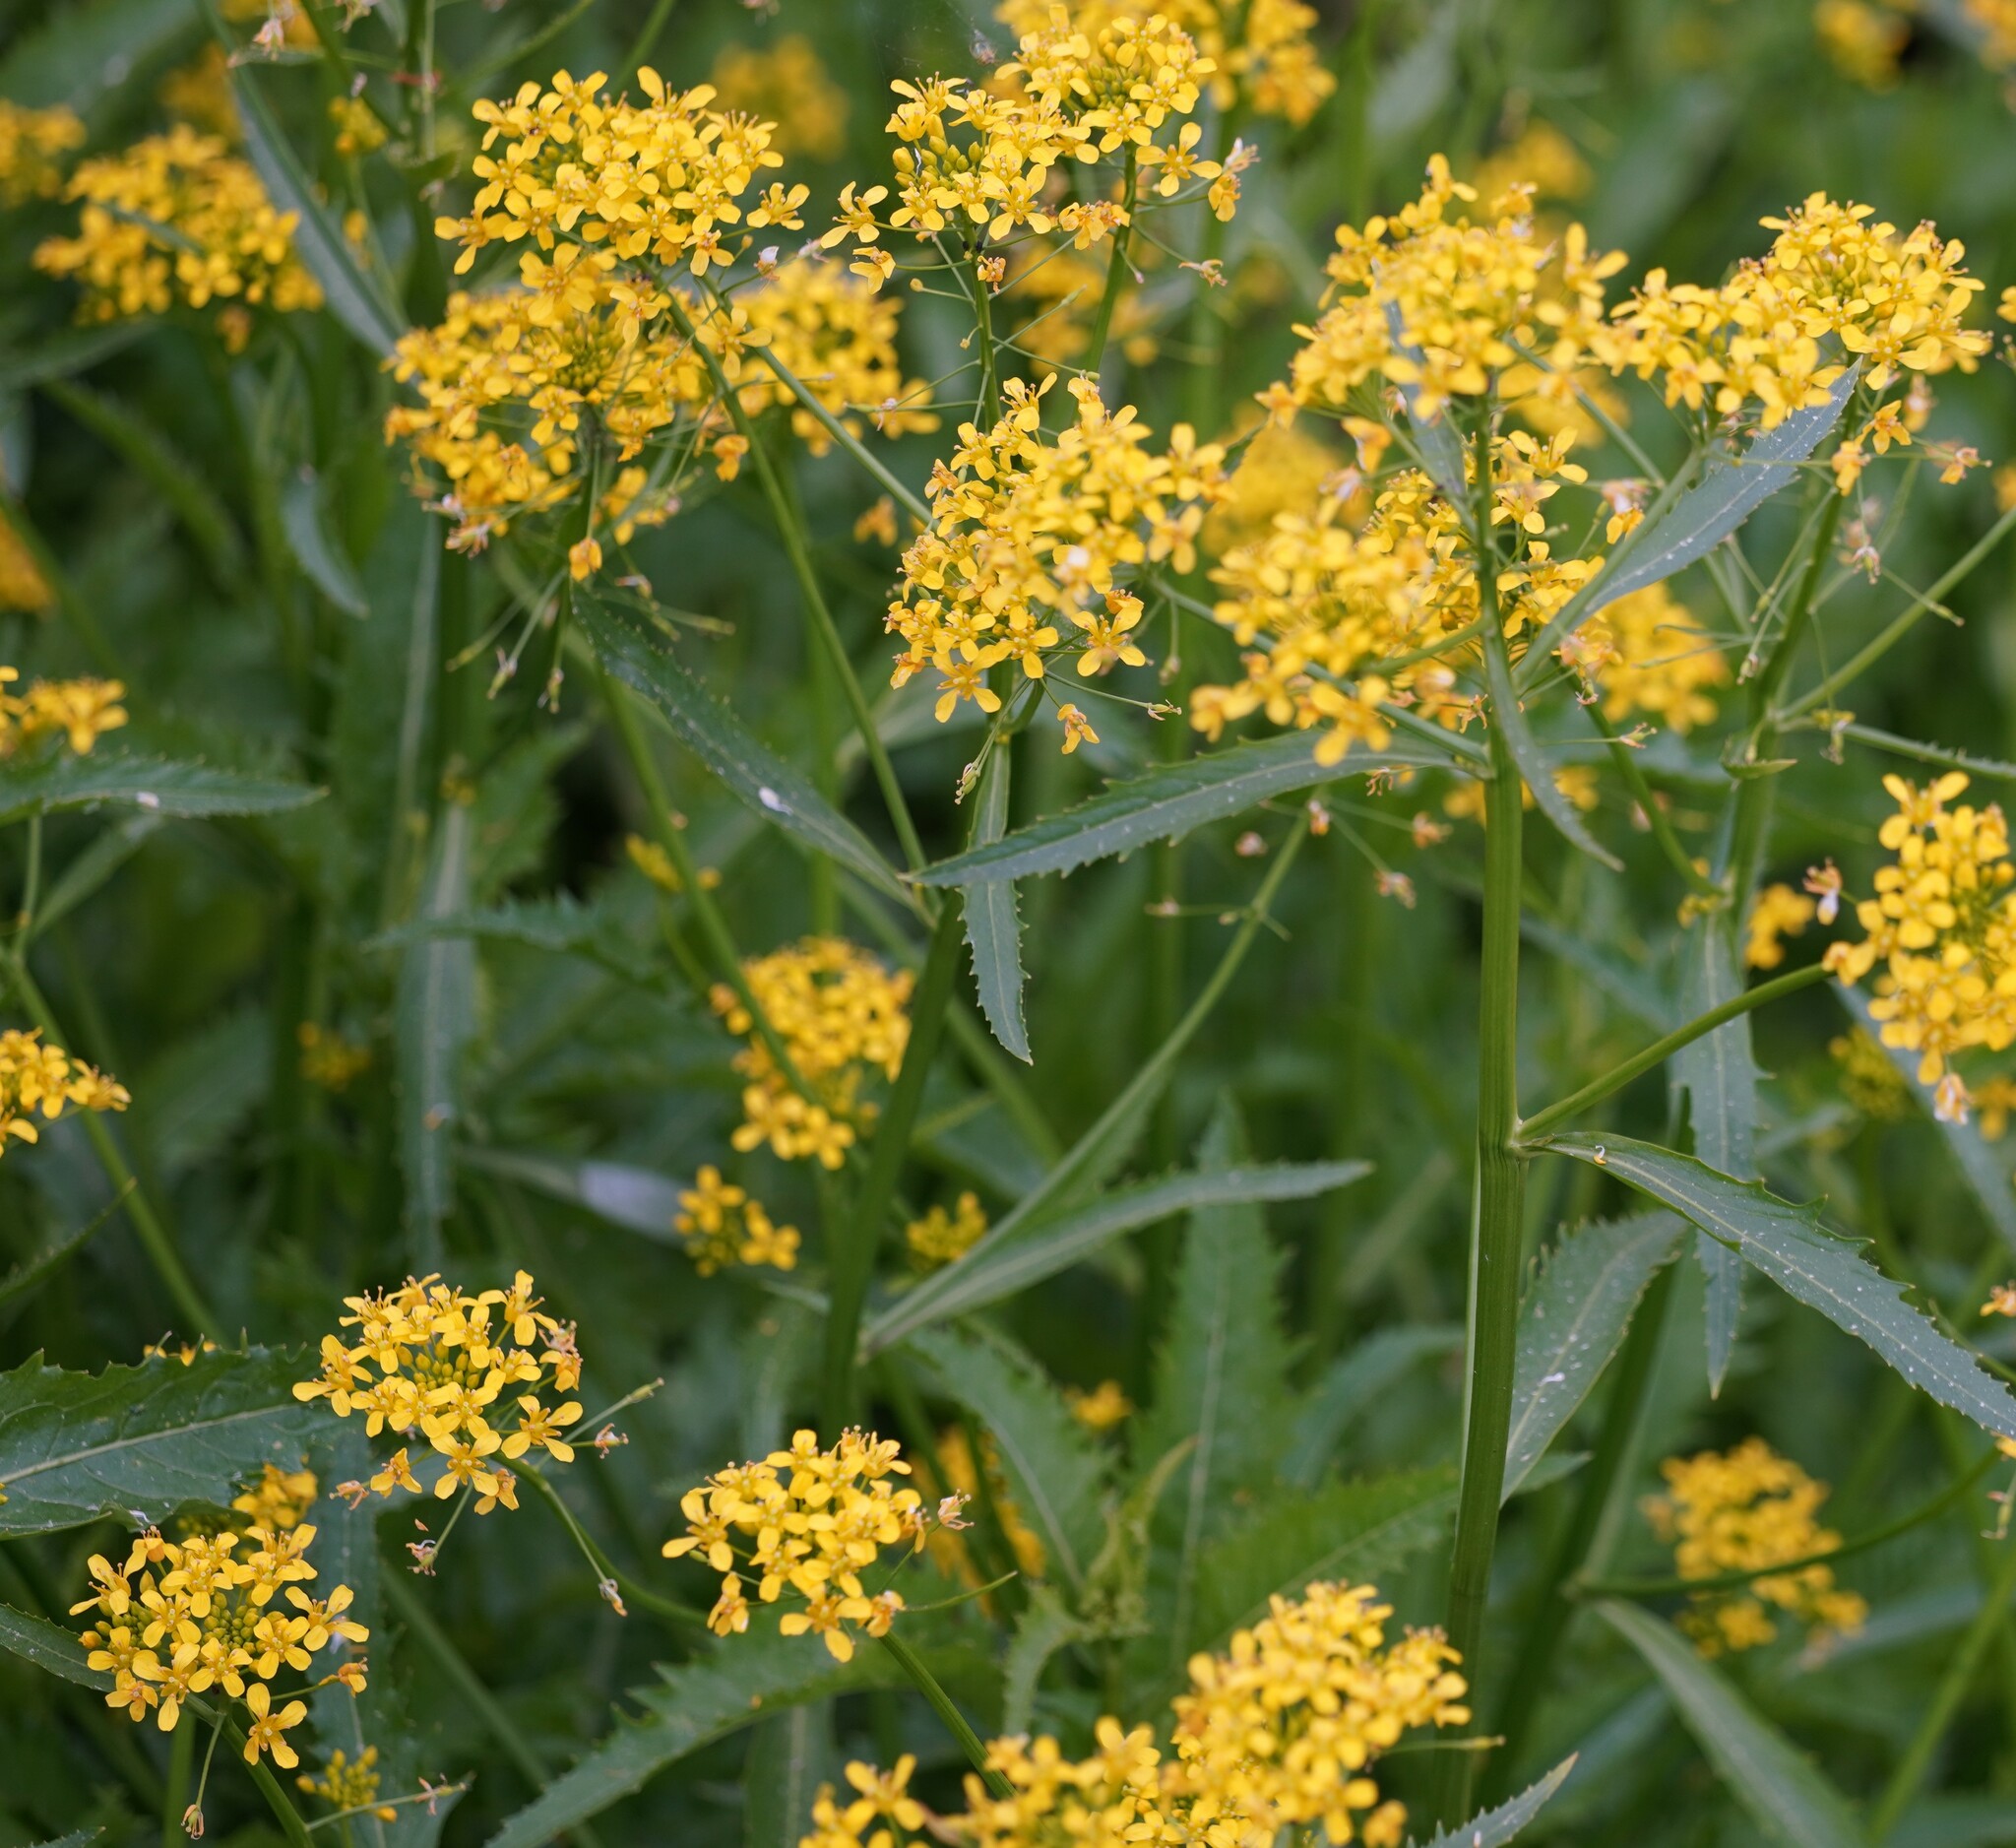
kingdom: Plantae
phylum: Tracheophyta
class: Magnoliopsida
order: Brassicales
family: Brassicaceae
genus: Rorippa
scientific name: Rorippa amphibia
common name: Great yellow-cress
